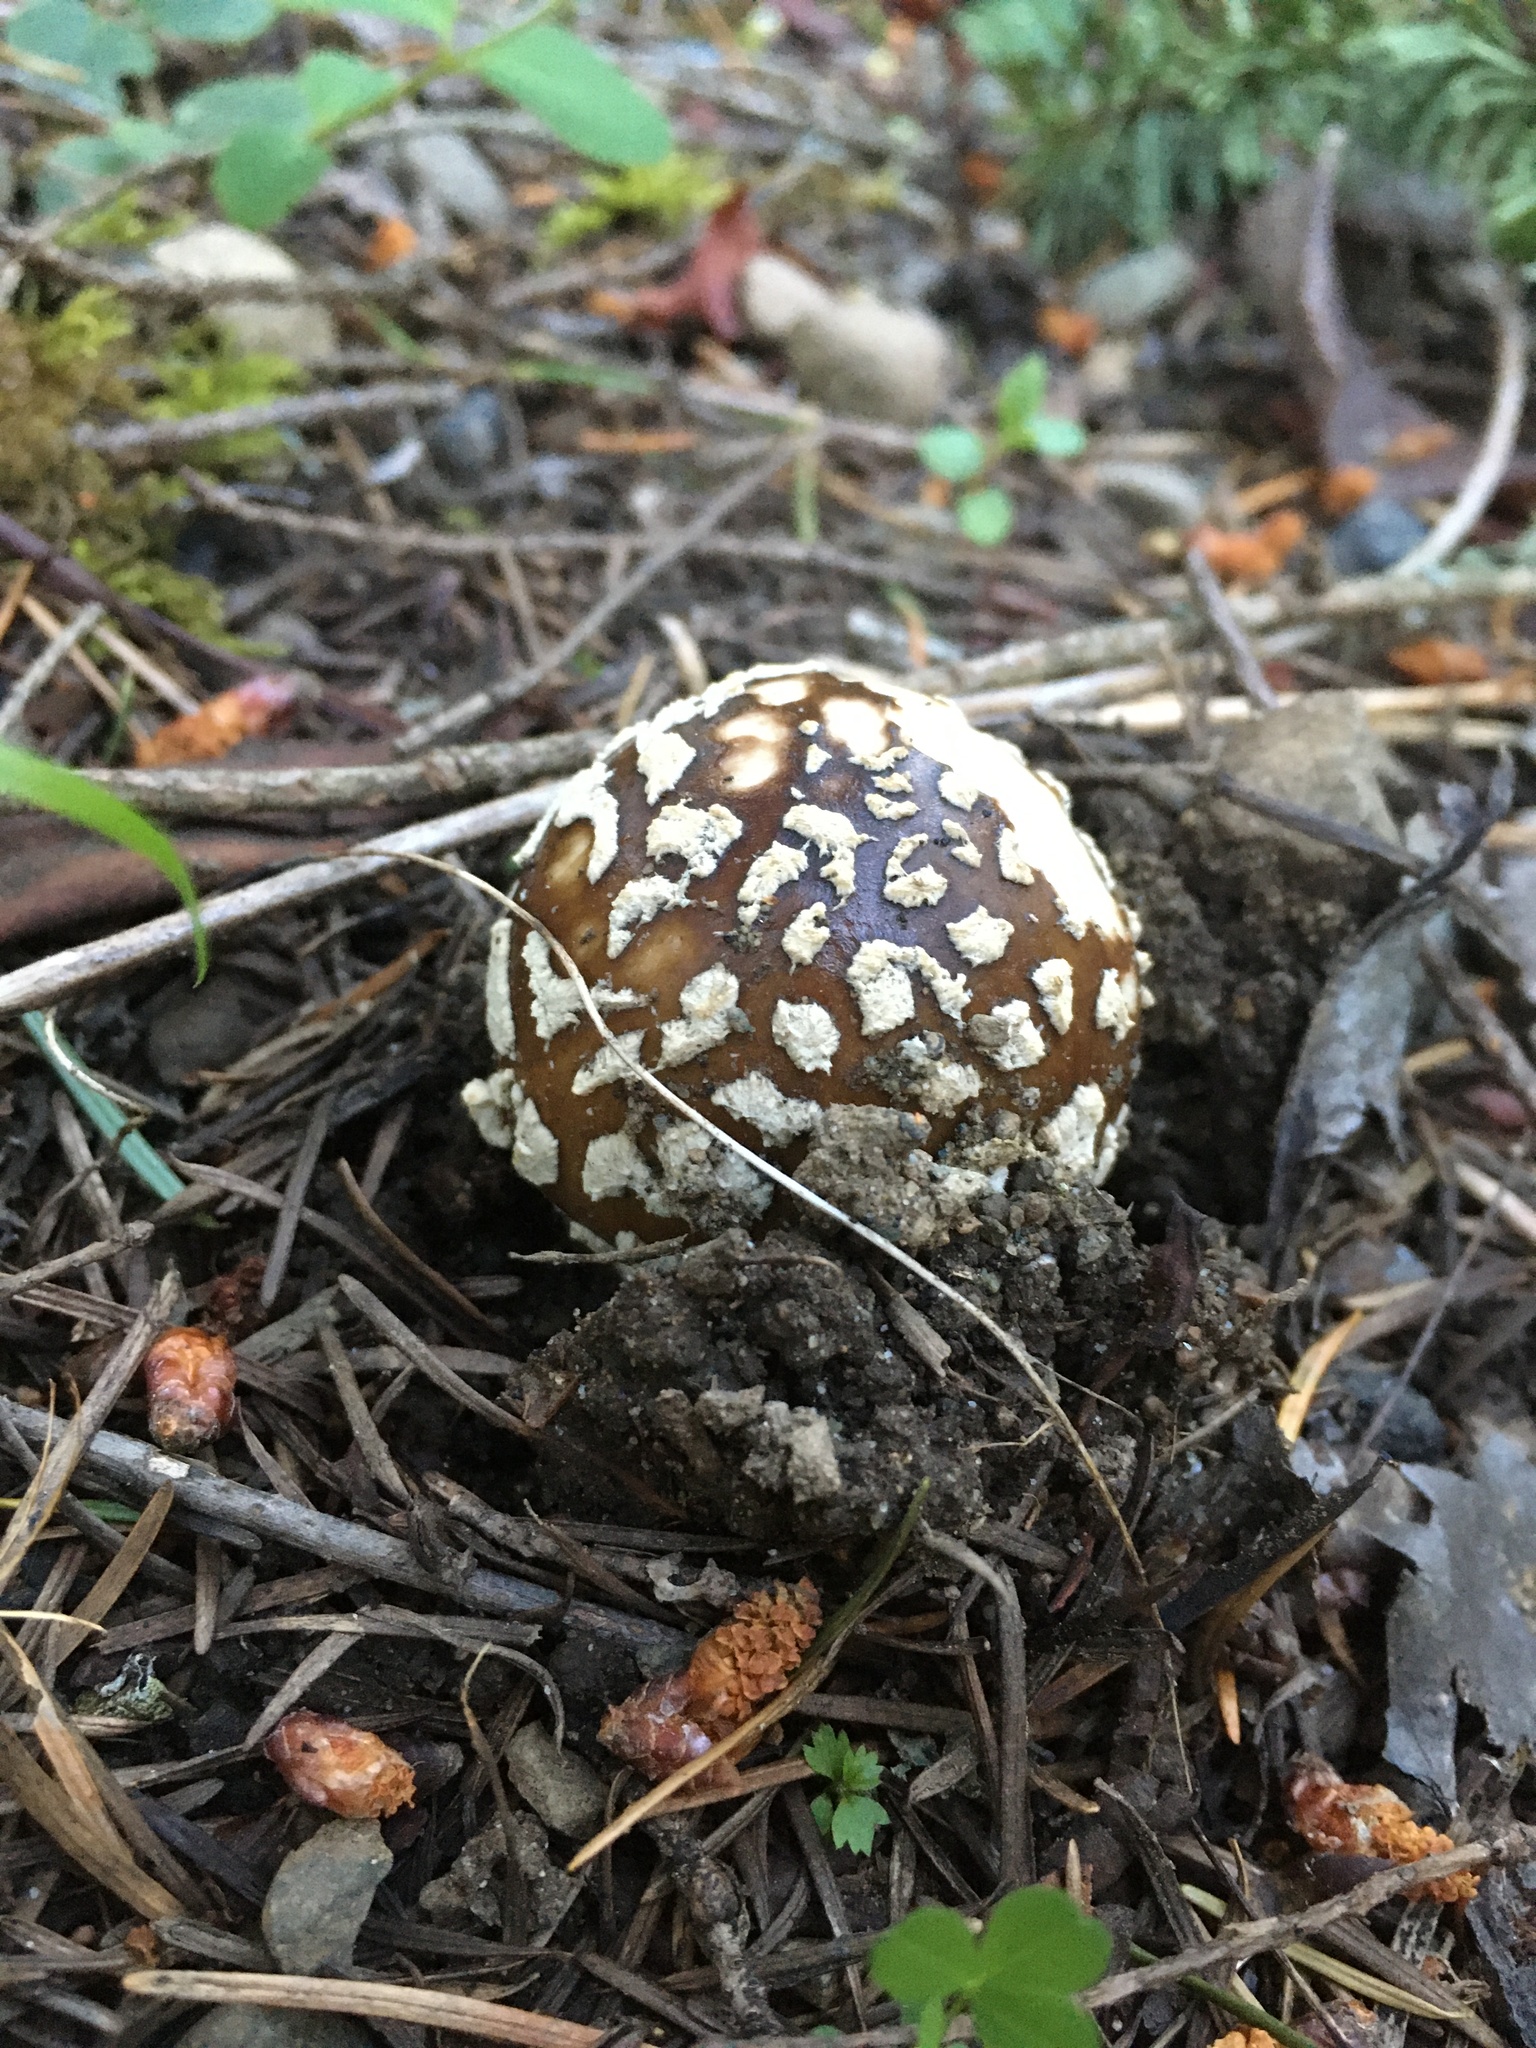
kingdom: Fungi
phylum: Basidiomycota
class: Agaricomycetes
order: Agaricales
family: Amanitaceae
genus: Amanita
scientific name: Amanita pantherinoides
